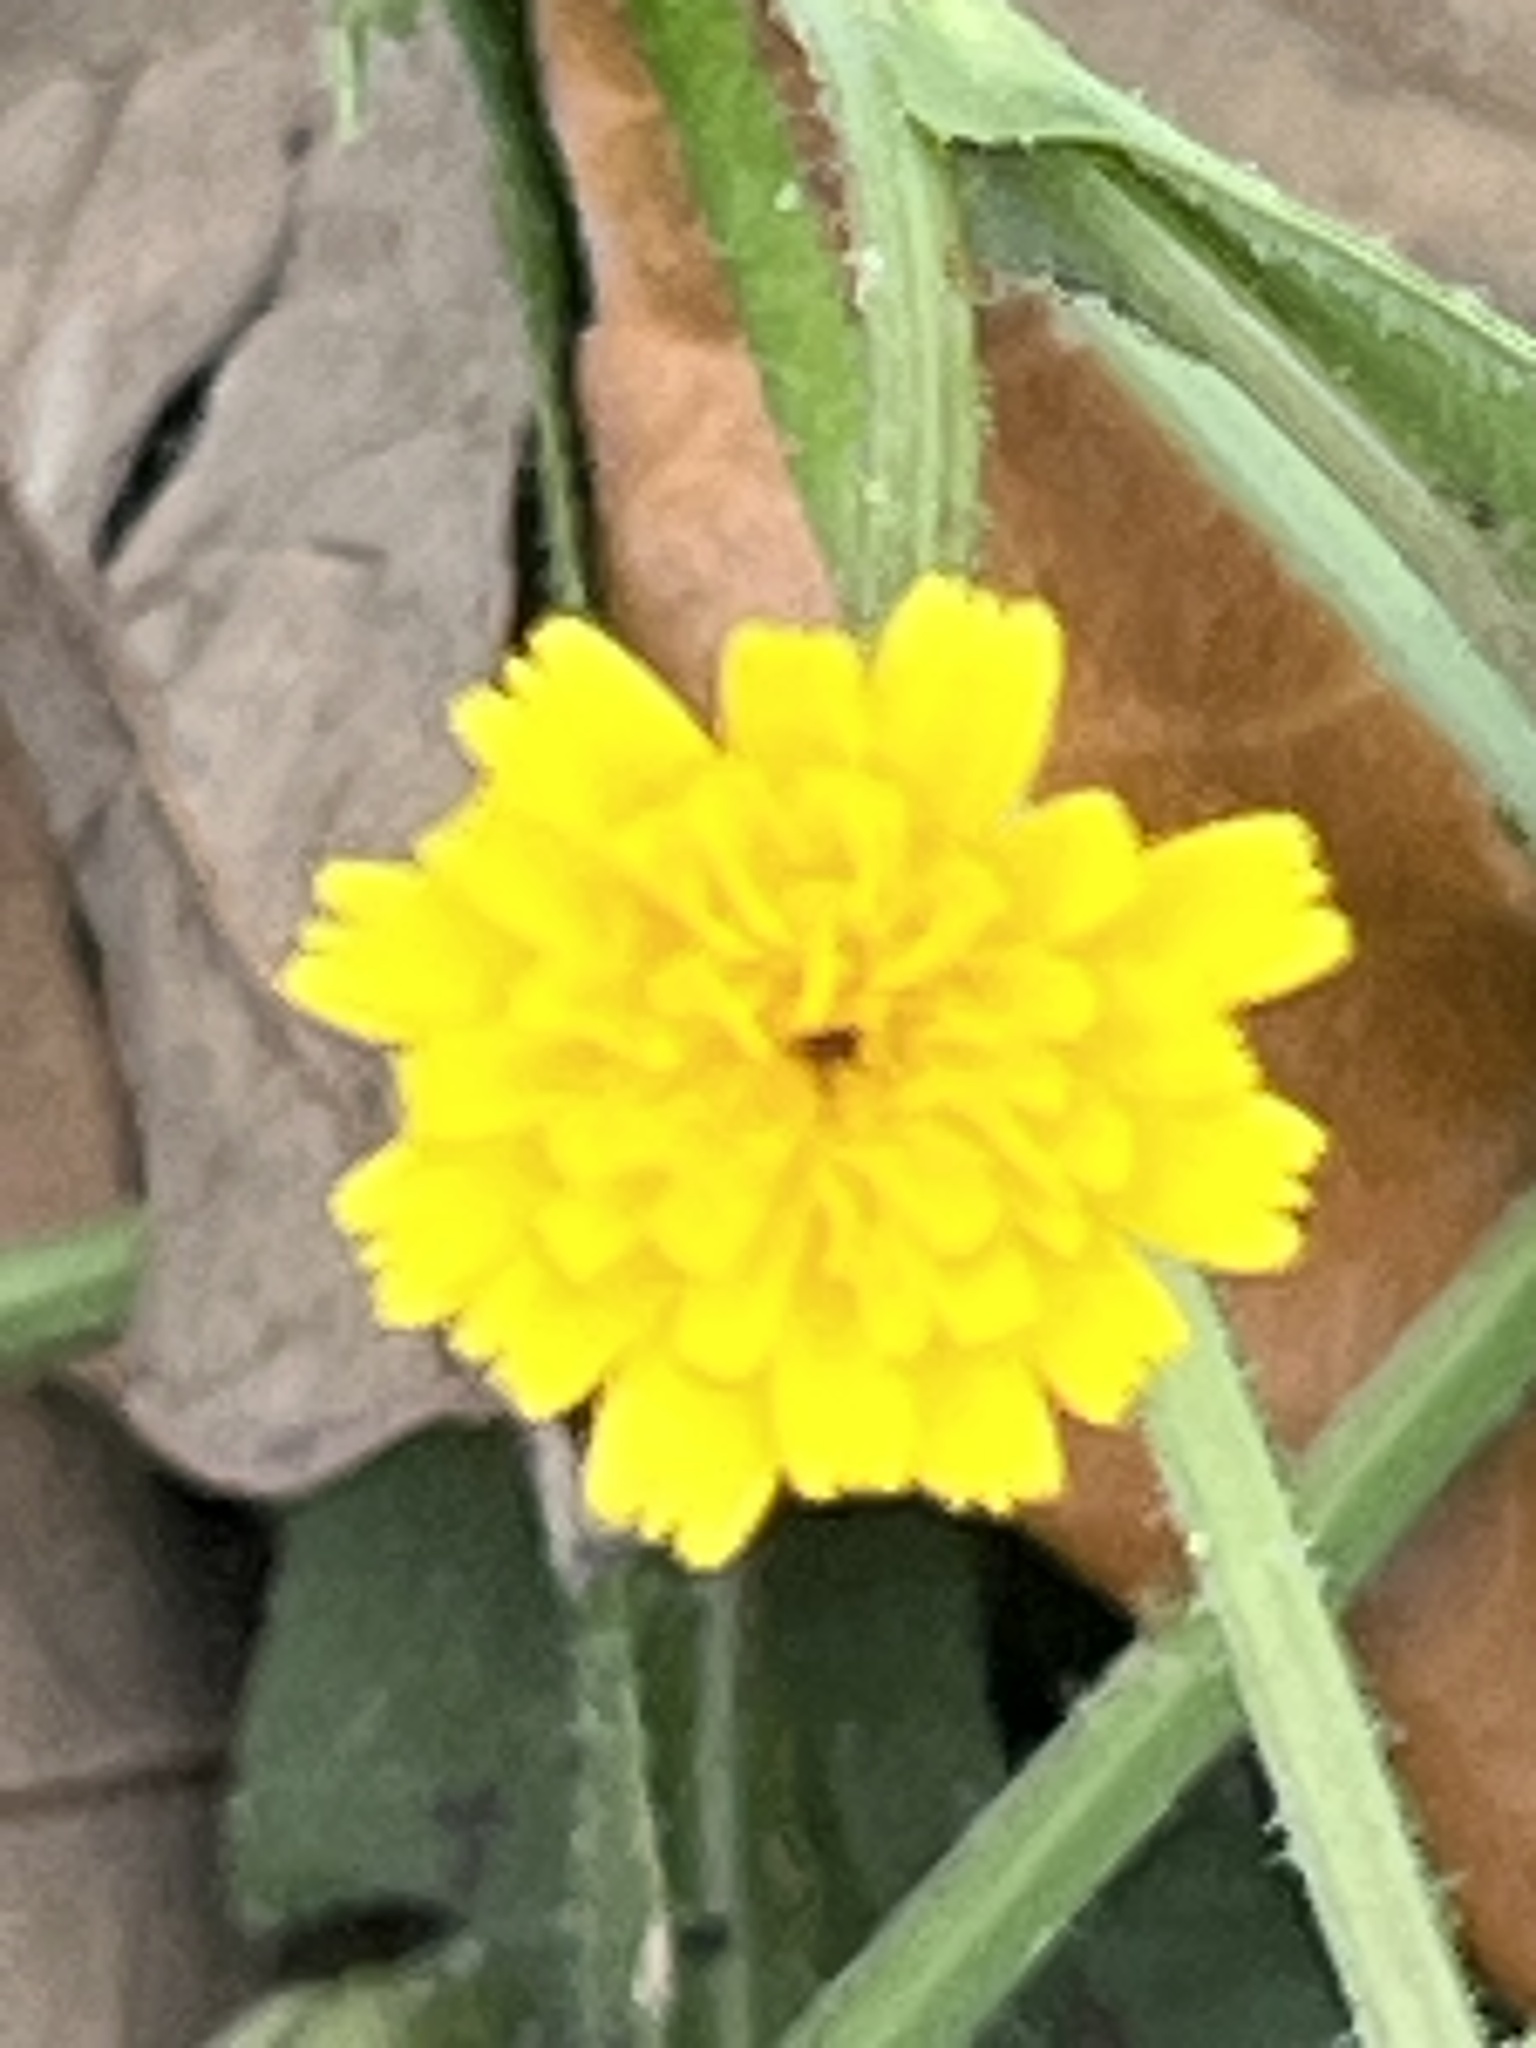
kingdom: Plantae
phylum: Tracheophyta
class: Magnoliopsida
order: Asterales
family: Asteraceae
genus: Hedypnois
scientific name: Hedypnois rhagadioloides
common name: Cretan weed
